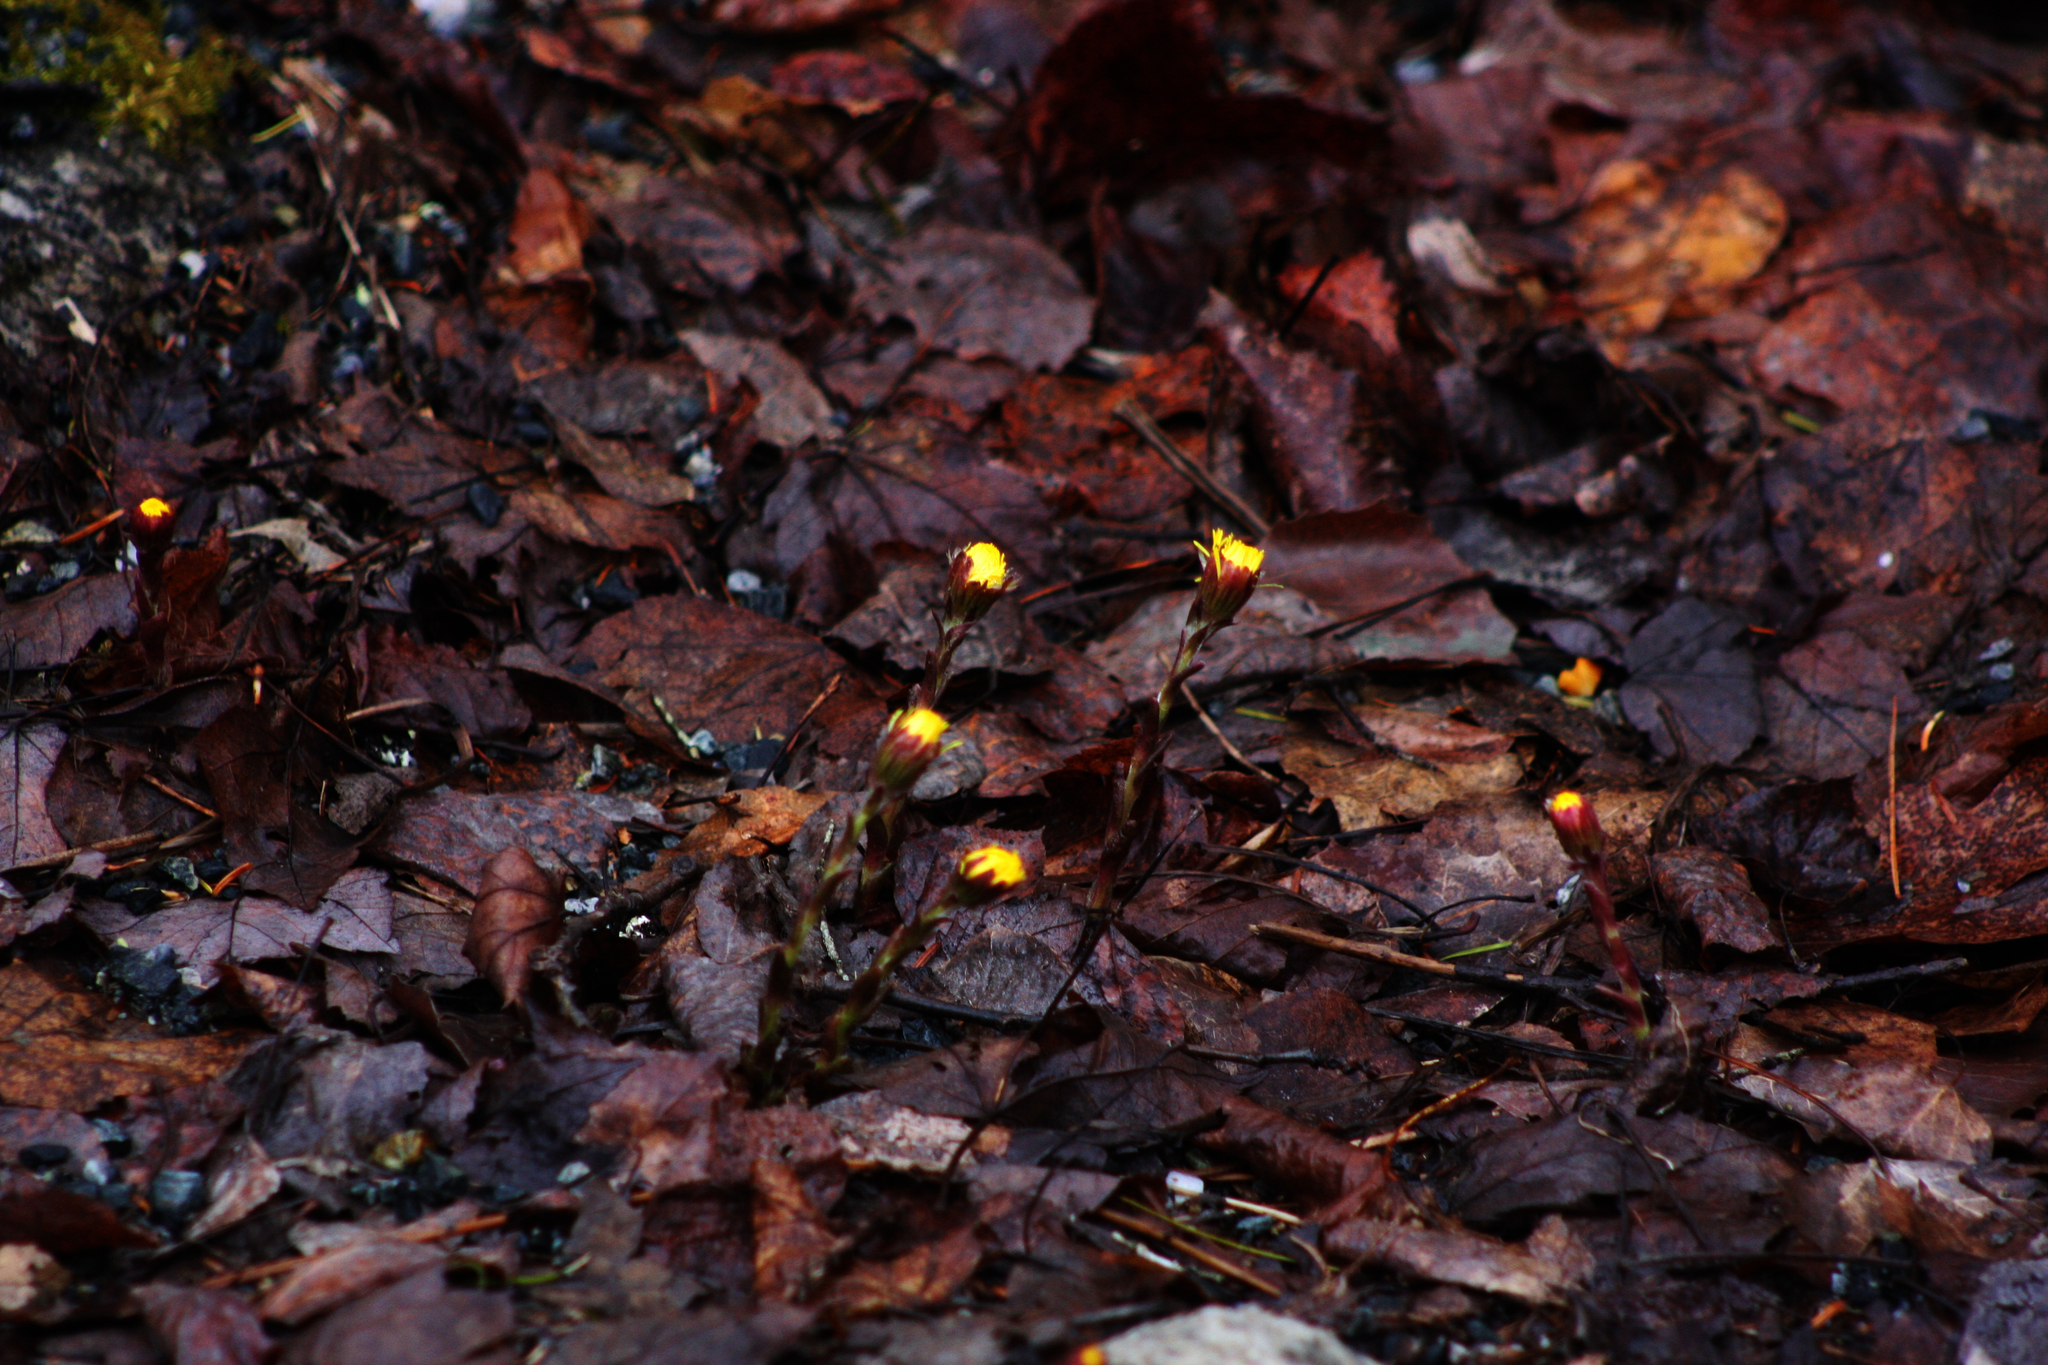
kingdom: Plantae
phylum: Tracheophyta
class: Magnoliopsida
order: Asterales
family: Asteraceae
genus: Tussilago
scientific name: Tussilago farfara
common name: Coltsfoot
